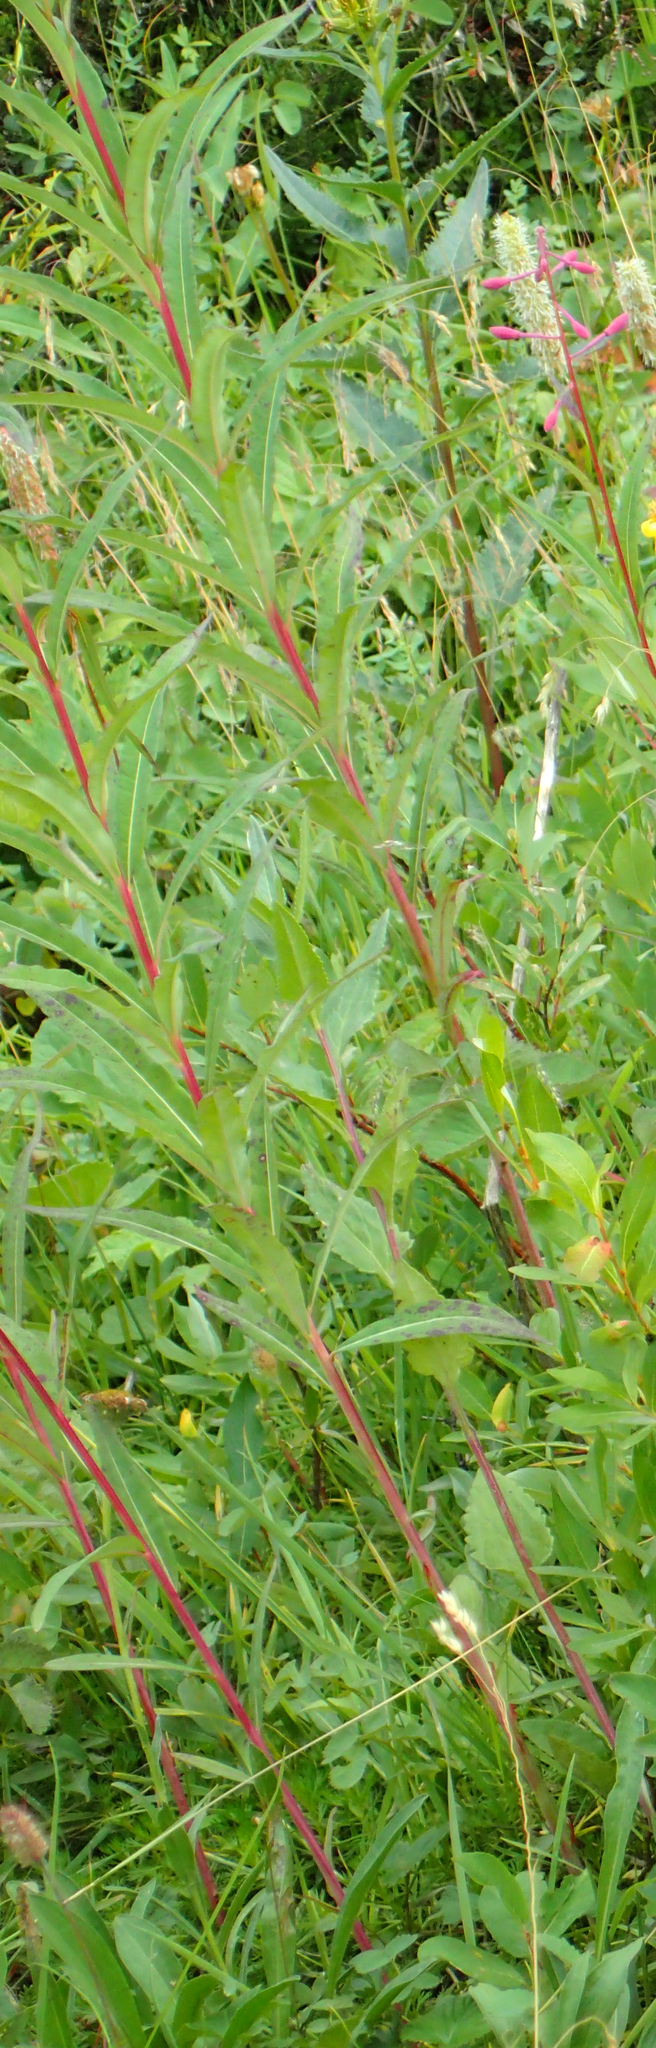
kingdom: Plantae
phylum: Tracheophyta
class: Magnoliopsida
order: Myrtales
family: Onagraceae
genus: Chamaenerion
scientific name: Chamaenerion angustifolium
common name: Fireweed
